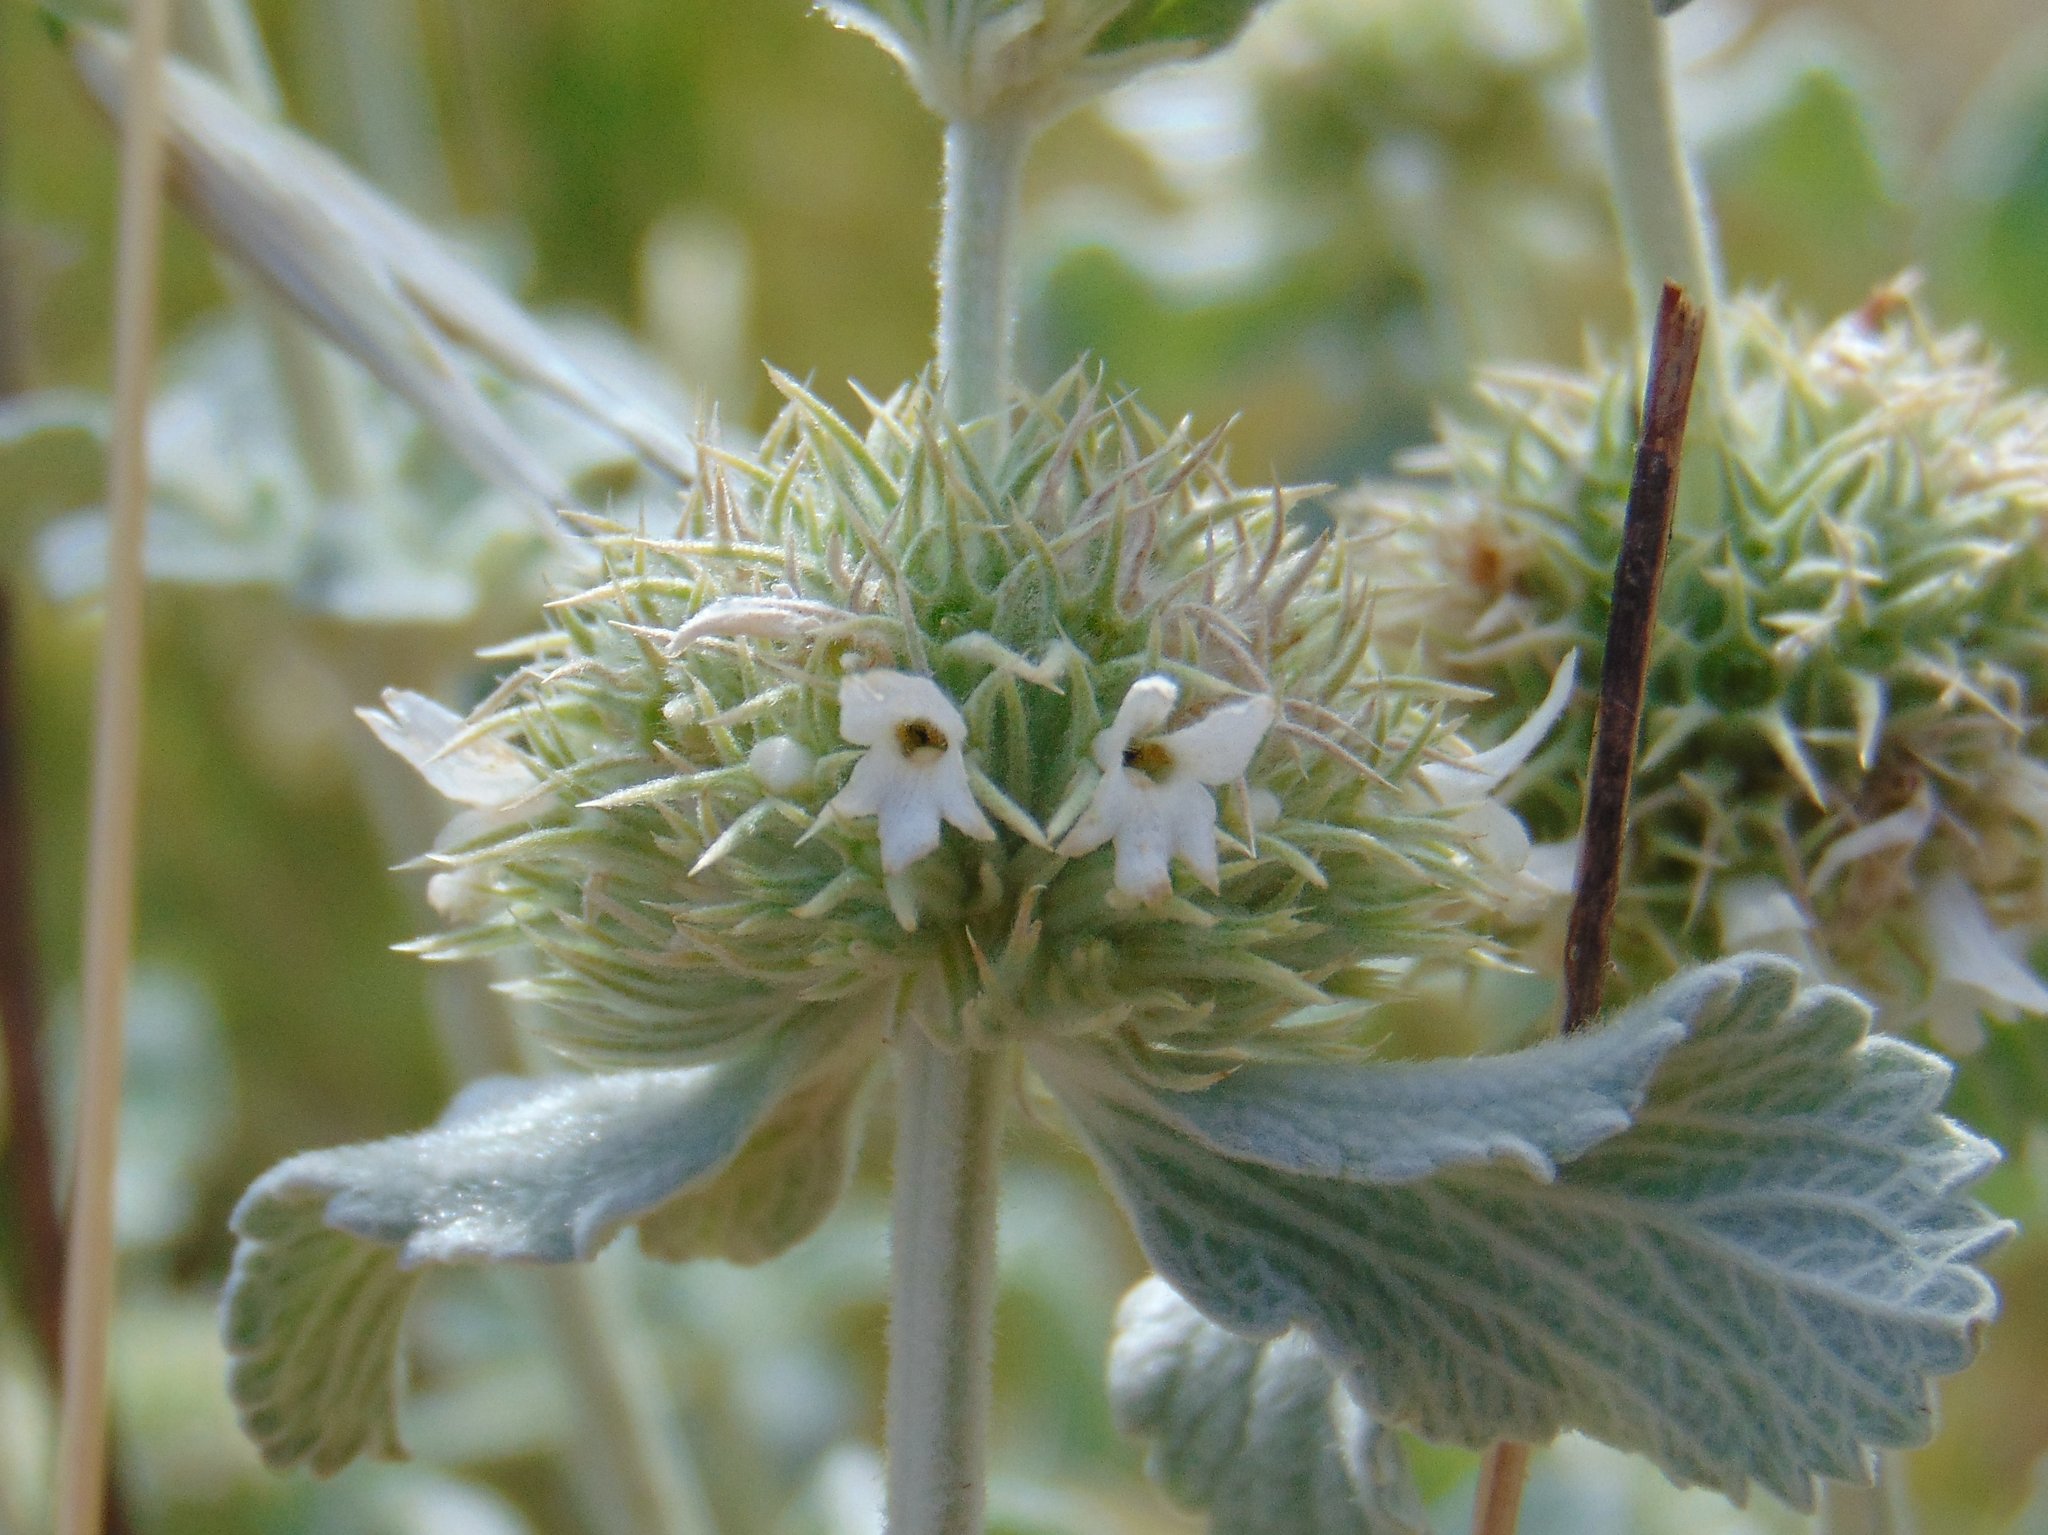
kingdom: Plantae
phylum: Tracheophyta
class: Magnoliopsida
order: Lamiales
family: Lamiaceae
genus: Marrubium
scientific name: Marrubium incanum
